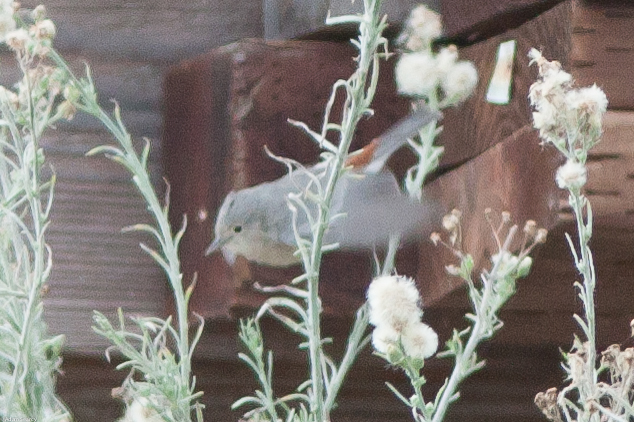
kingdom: Animalia
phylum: Chordata
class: Aves
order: Passeriformes
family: Parulidae
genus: Leiothlypis
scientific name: Leiothlypis luciae
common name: Lucy's warbler
